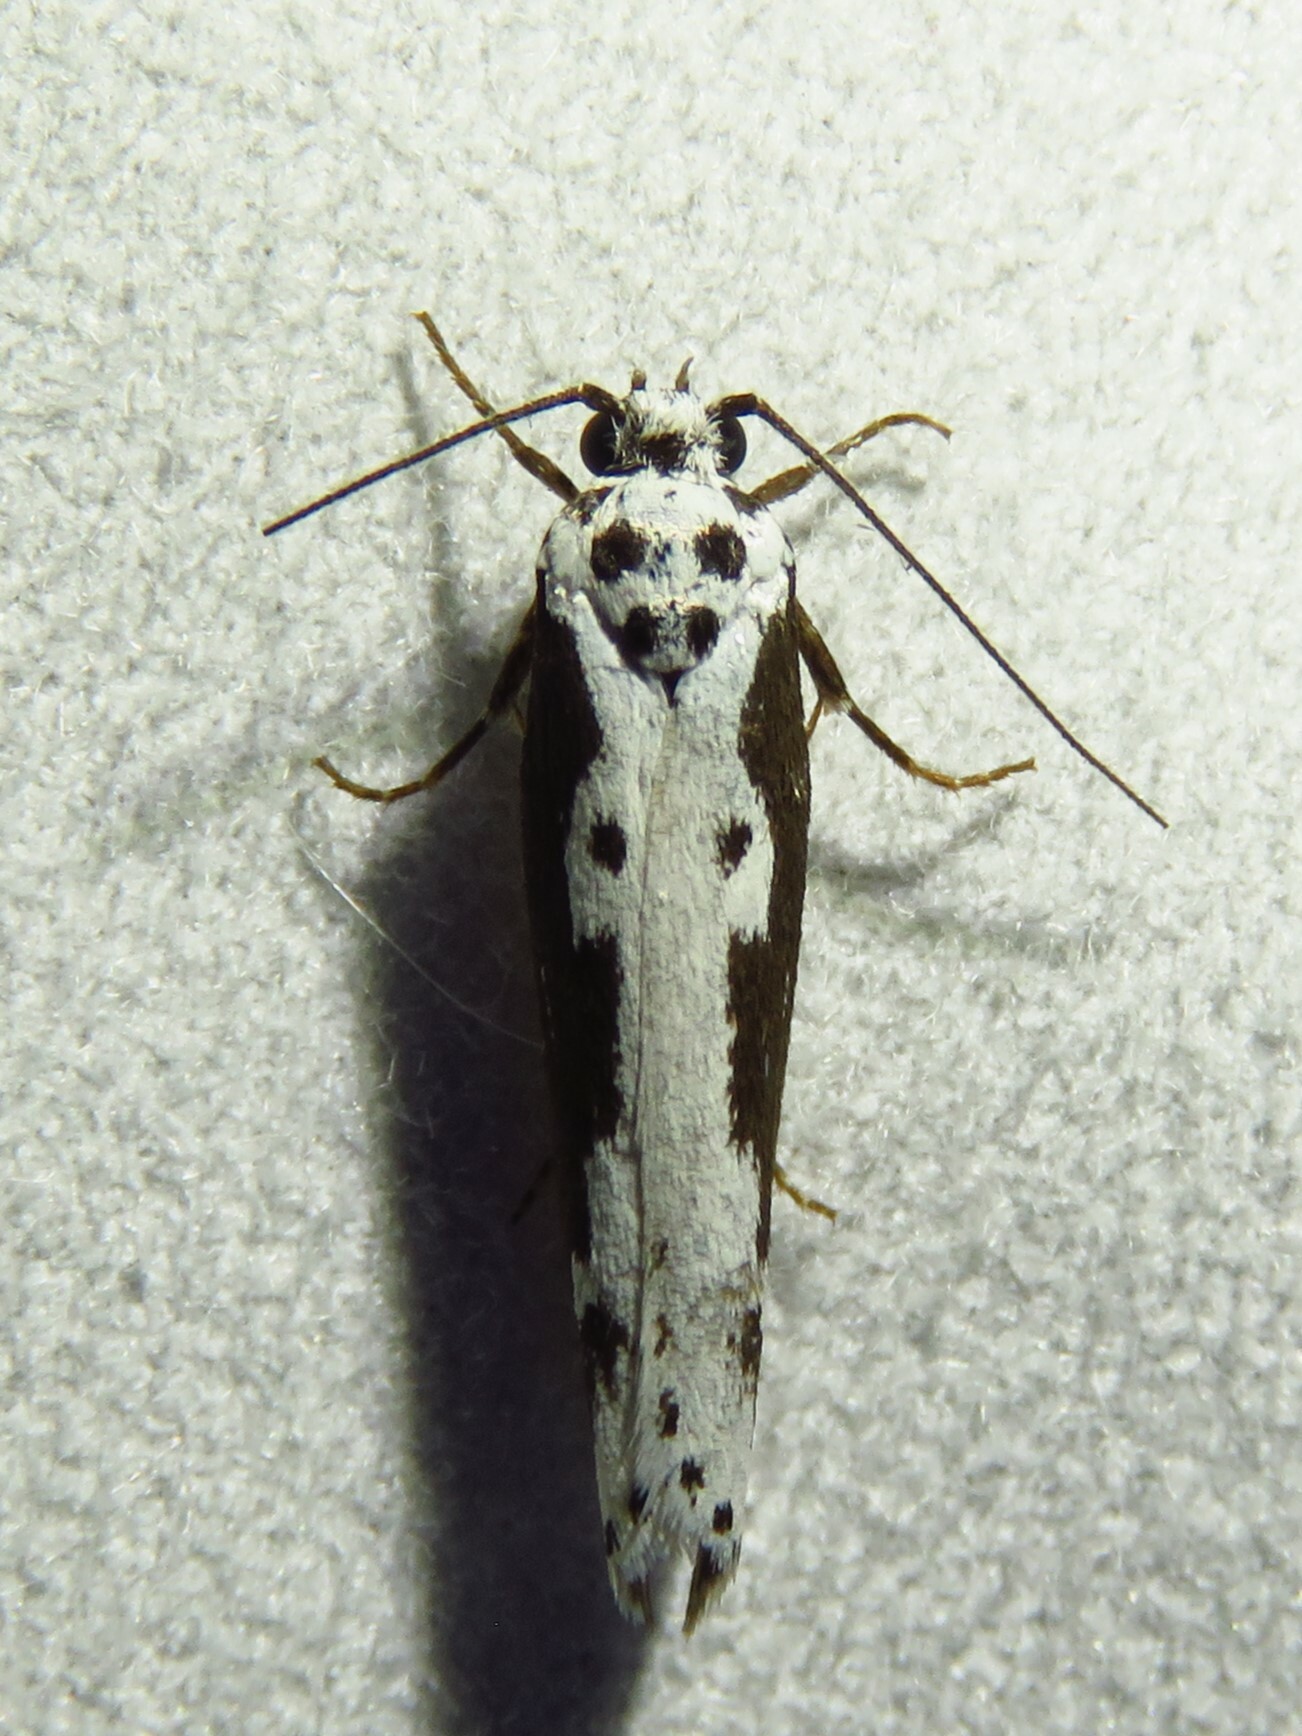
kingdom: Animalia
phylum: Arthropoda
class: Insecta
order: Lepidoptera
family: Ethmiidae
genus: Ethmia
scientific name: Ethmia semilugens
